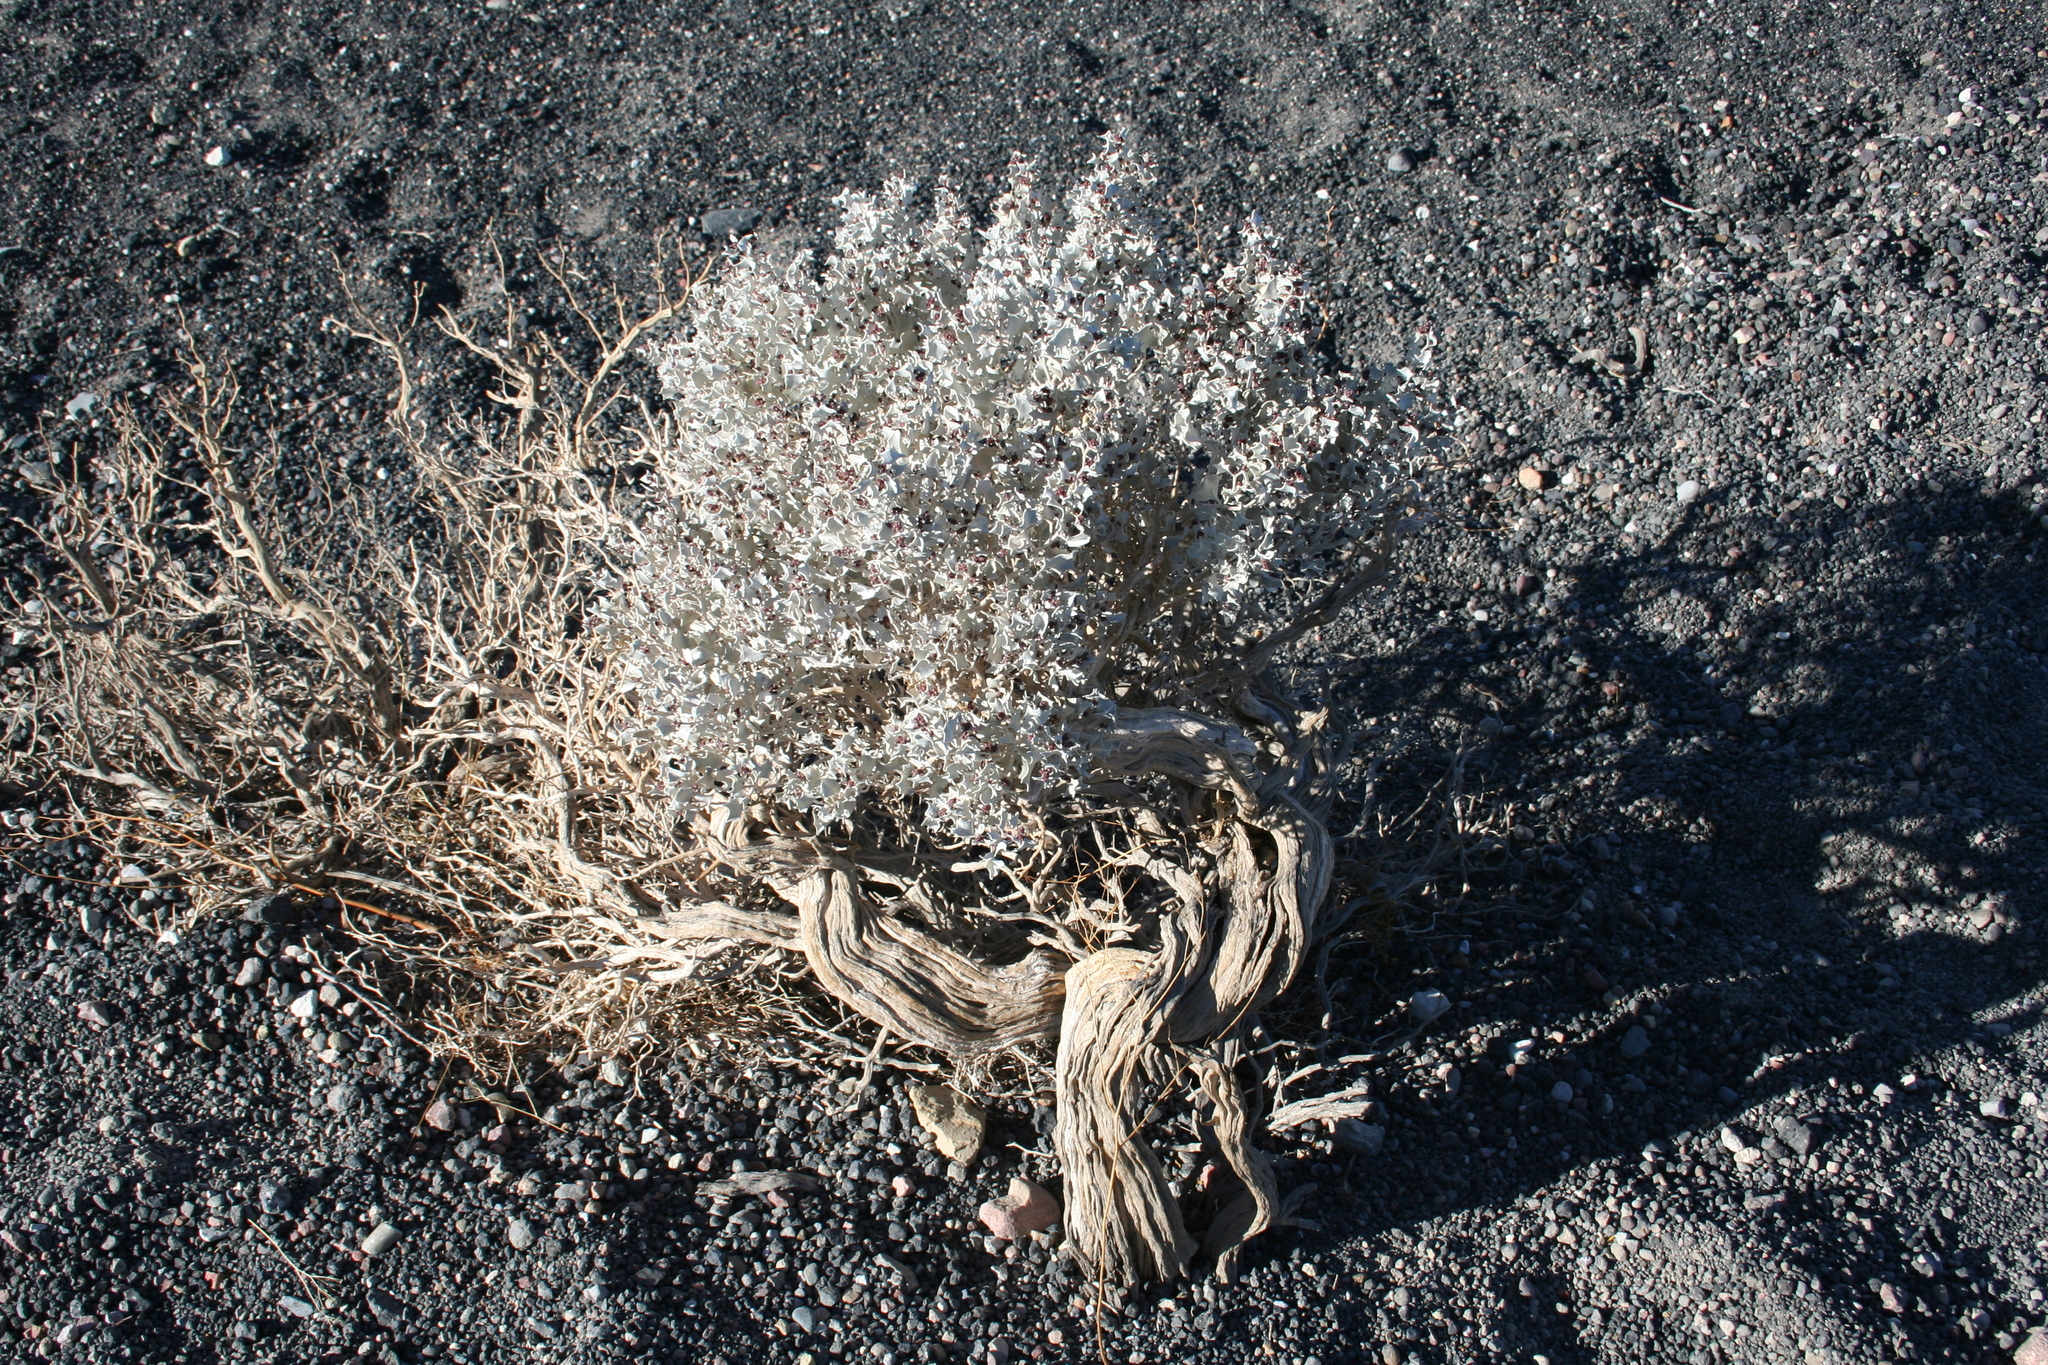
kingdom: Plantae
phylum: Tracheophyta
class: Magnoliopsida
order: Caryophyllales
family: Amaranthaceae
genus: Atriplex
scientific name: Atriplex hymenelytra
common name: Desert-holly
